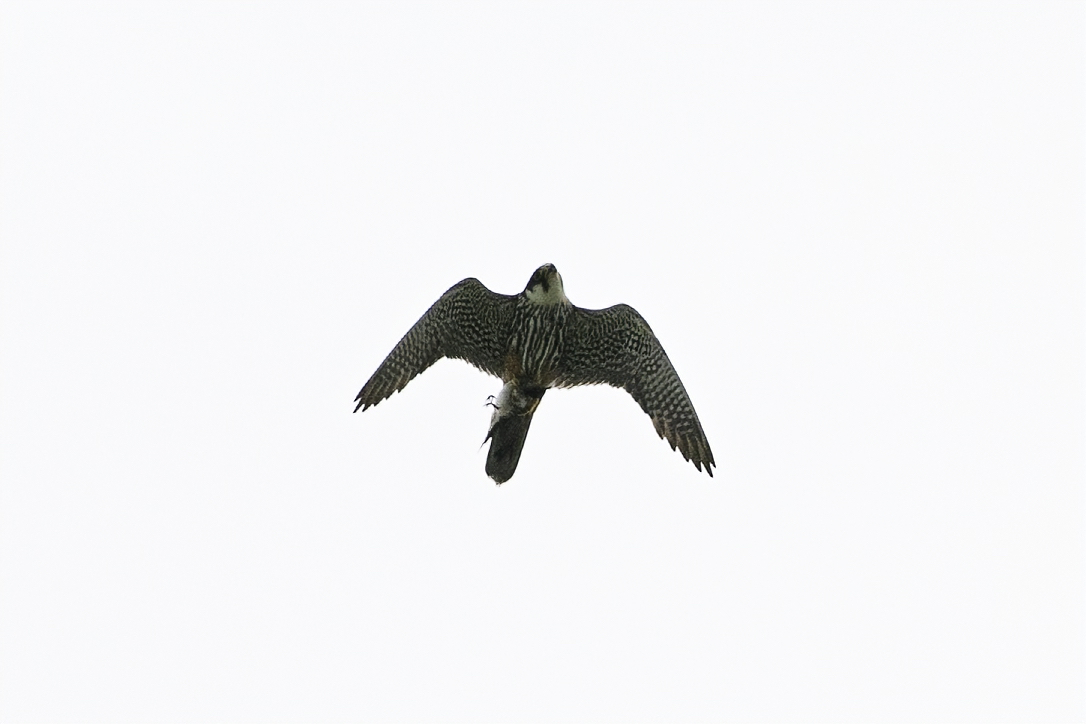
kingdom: Animalia
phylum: Chordata
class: Aves
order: Falconiformes
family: Falconidae
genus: Falco
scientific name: Falco subbuteo
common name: Eurasian hobby
